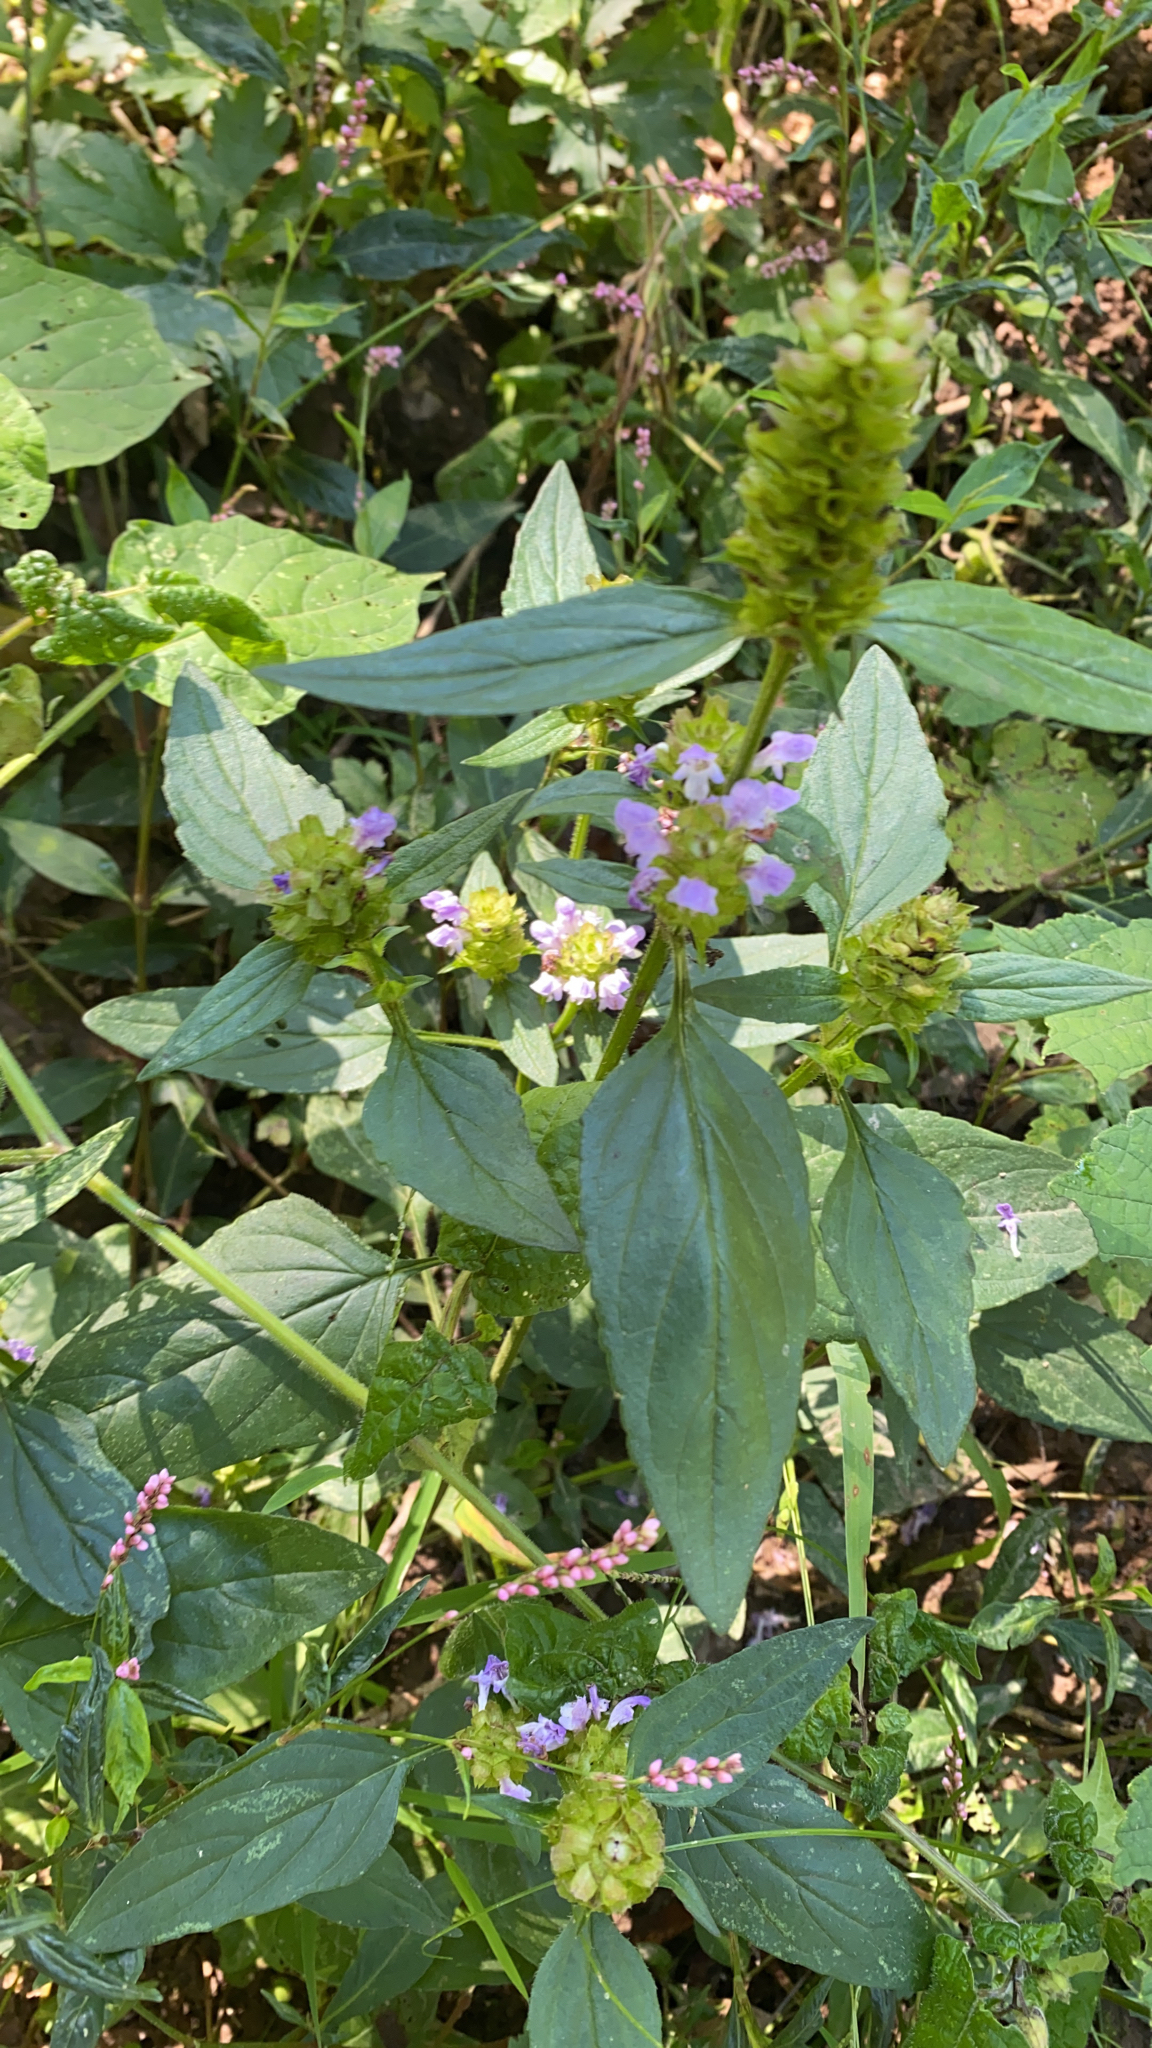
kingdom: Plantae
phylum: Tracheophyta
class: Magnoliopsida
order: Lamiales
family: Lamiaceae
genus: Prunella
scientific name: Prunella vulgaris
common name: Heal-all
